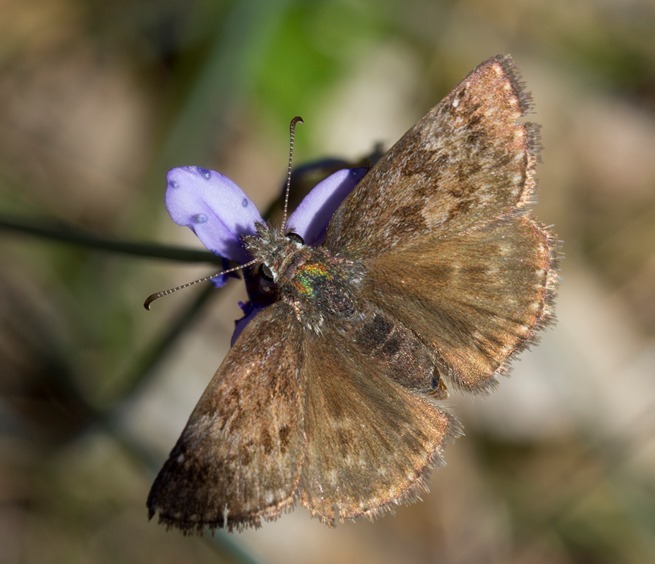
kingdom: Animalia
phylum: Arthropoda
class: Insecta
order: Lepidoptera
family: Hesperiidae
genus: Erynnis
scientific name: Erynnis tages
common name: Dingy skipper
